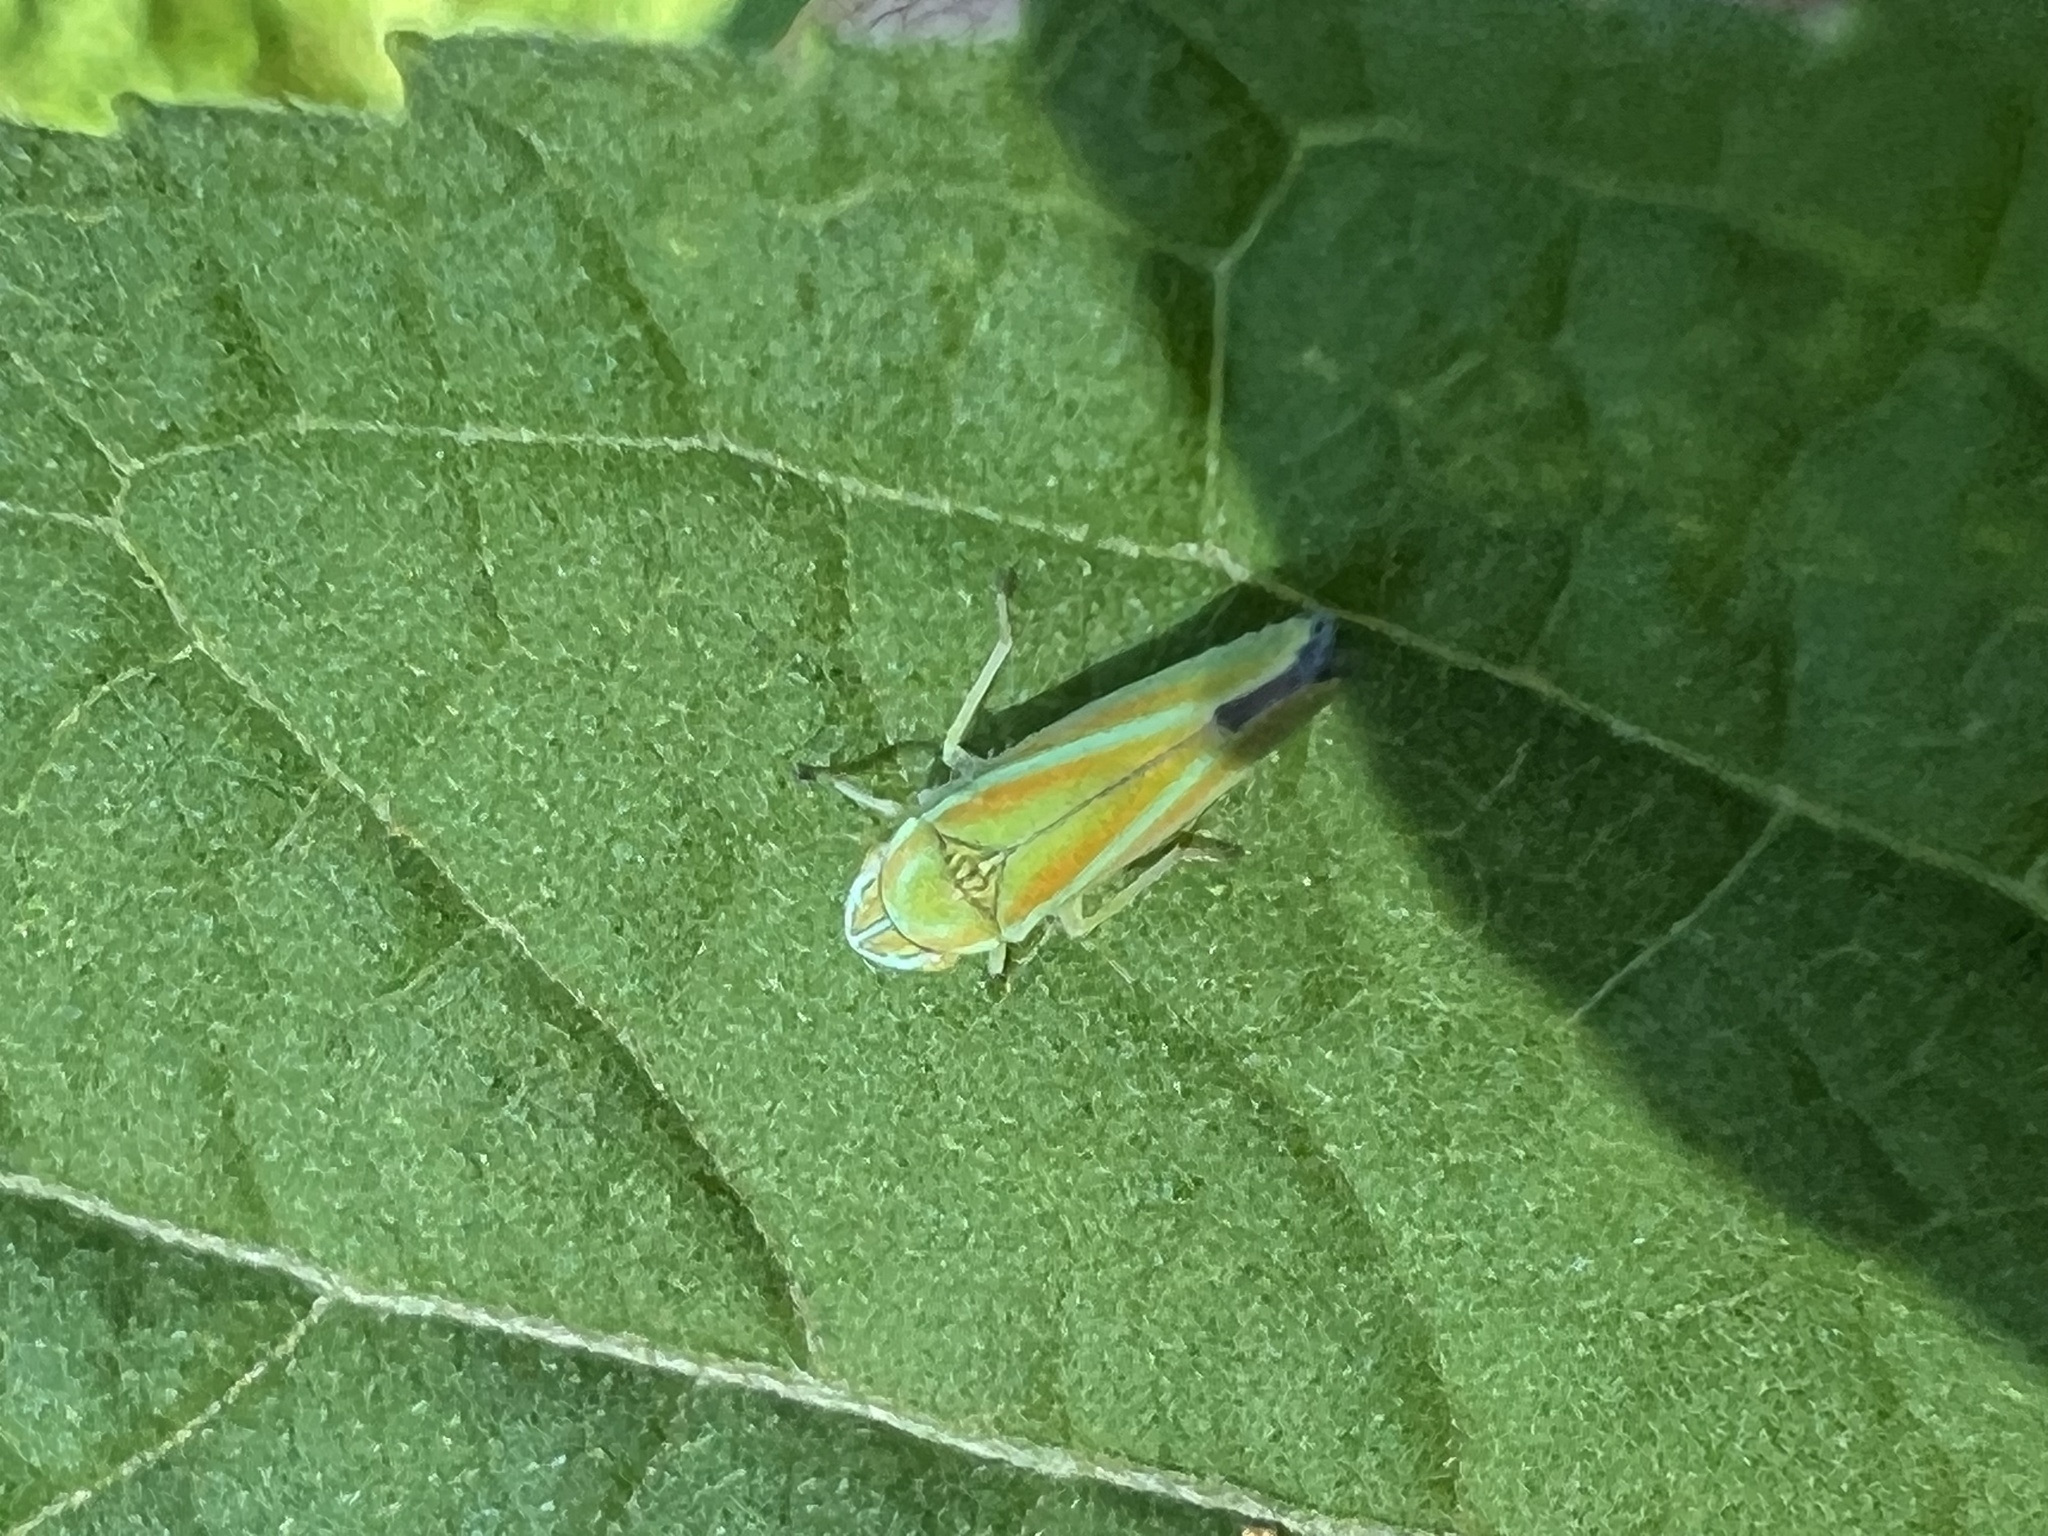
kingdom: Animalia
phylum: Arthropoda
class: Insecta
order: Hemiptera
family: Cicadellidae
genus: Graphocephala
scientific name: Graphocephala versuta
